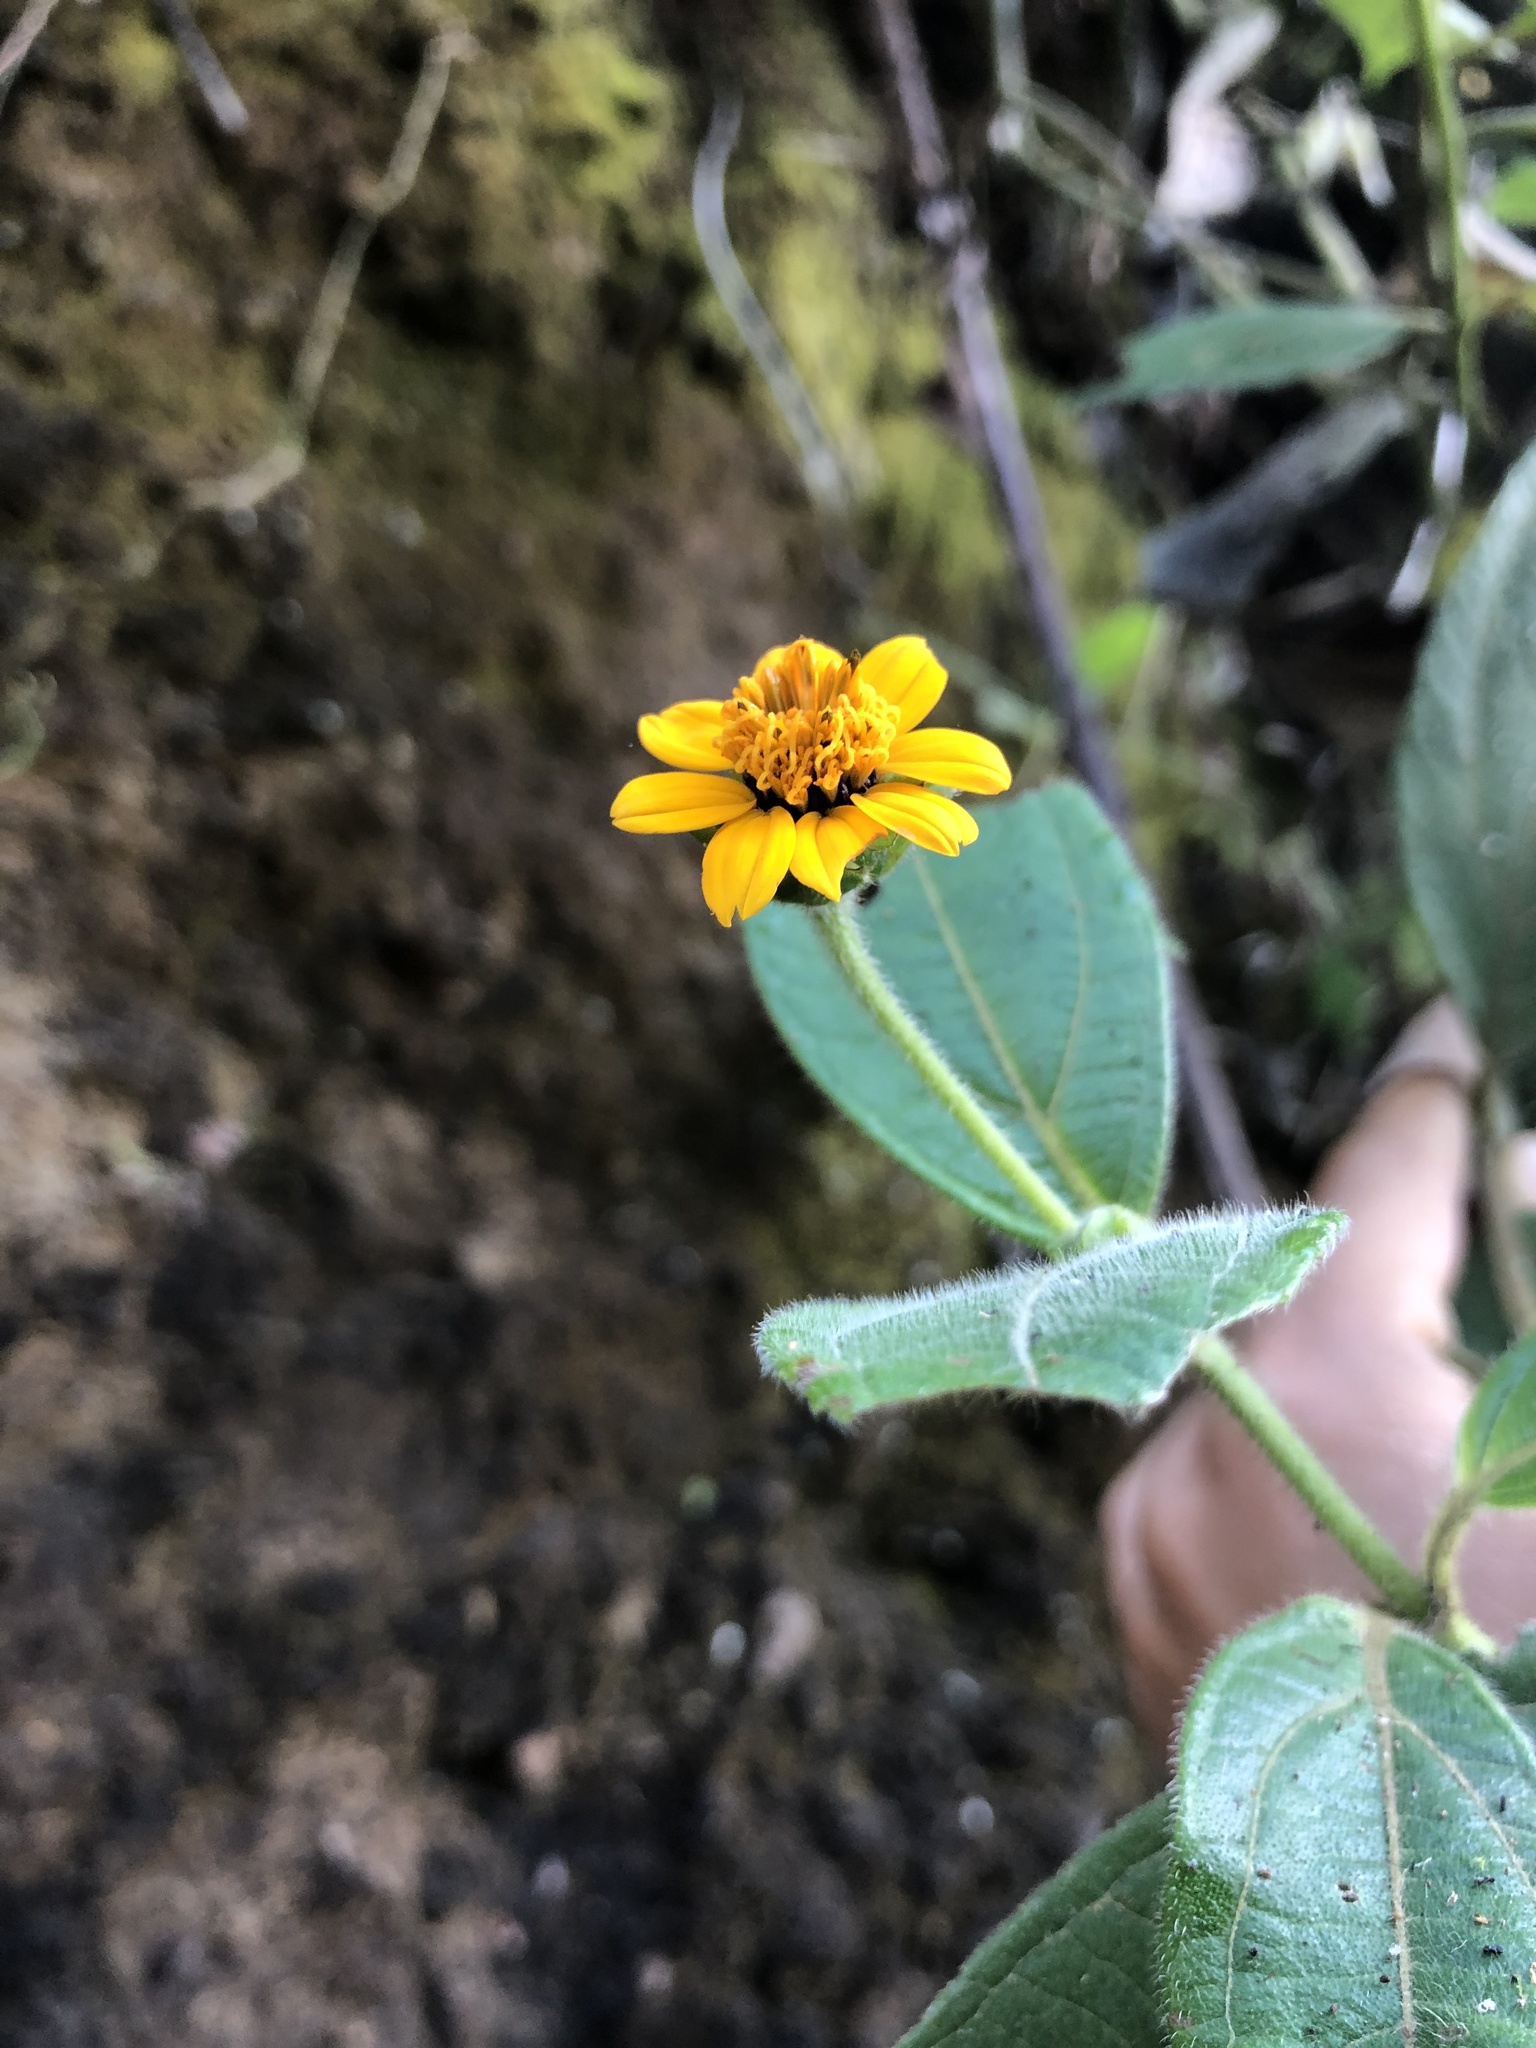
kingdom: Plantae
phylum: Tracheophyta
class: Magnoliopsida
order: Asterales
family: Asteraceae
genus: Elaphandra
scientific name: Elaphandra quinquenervis
